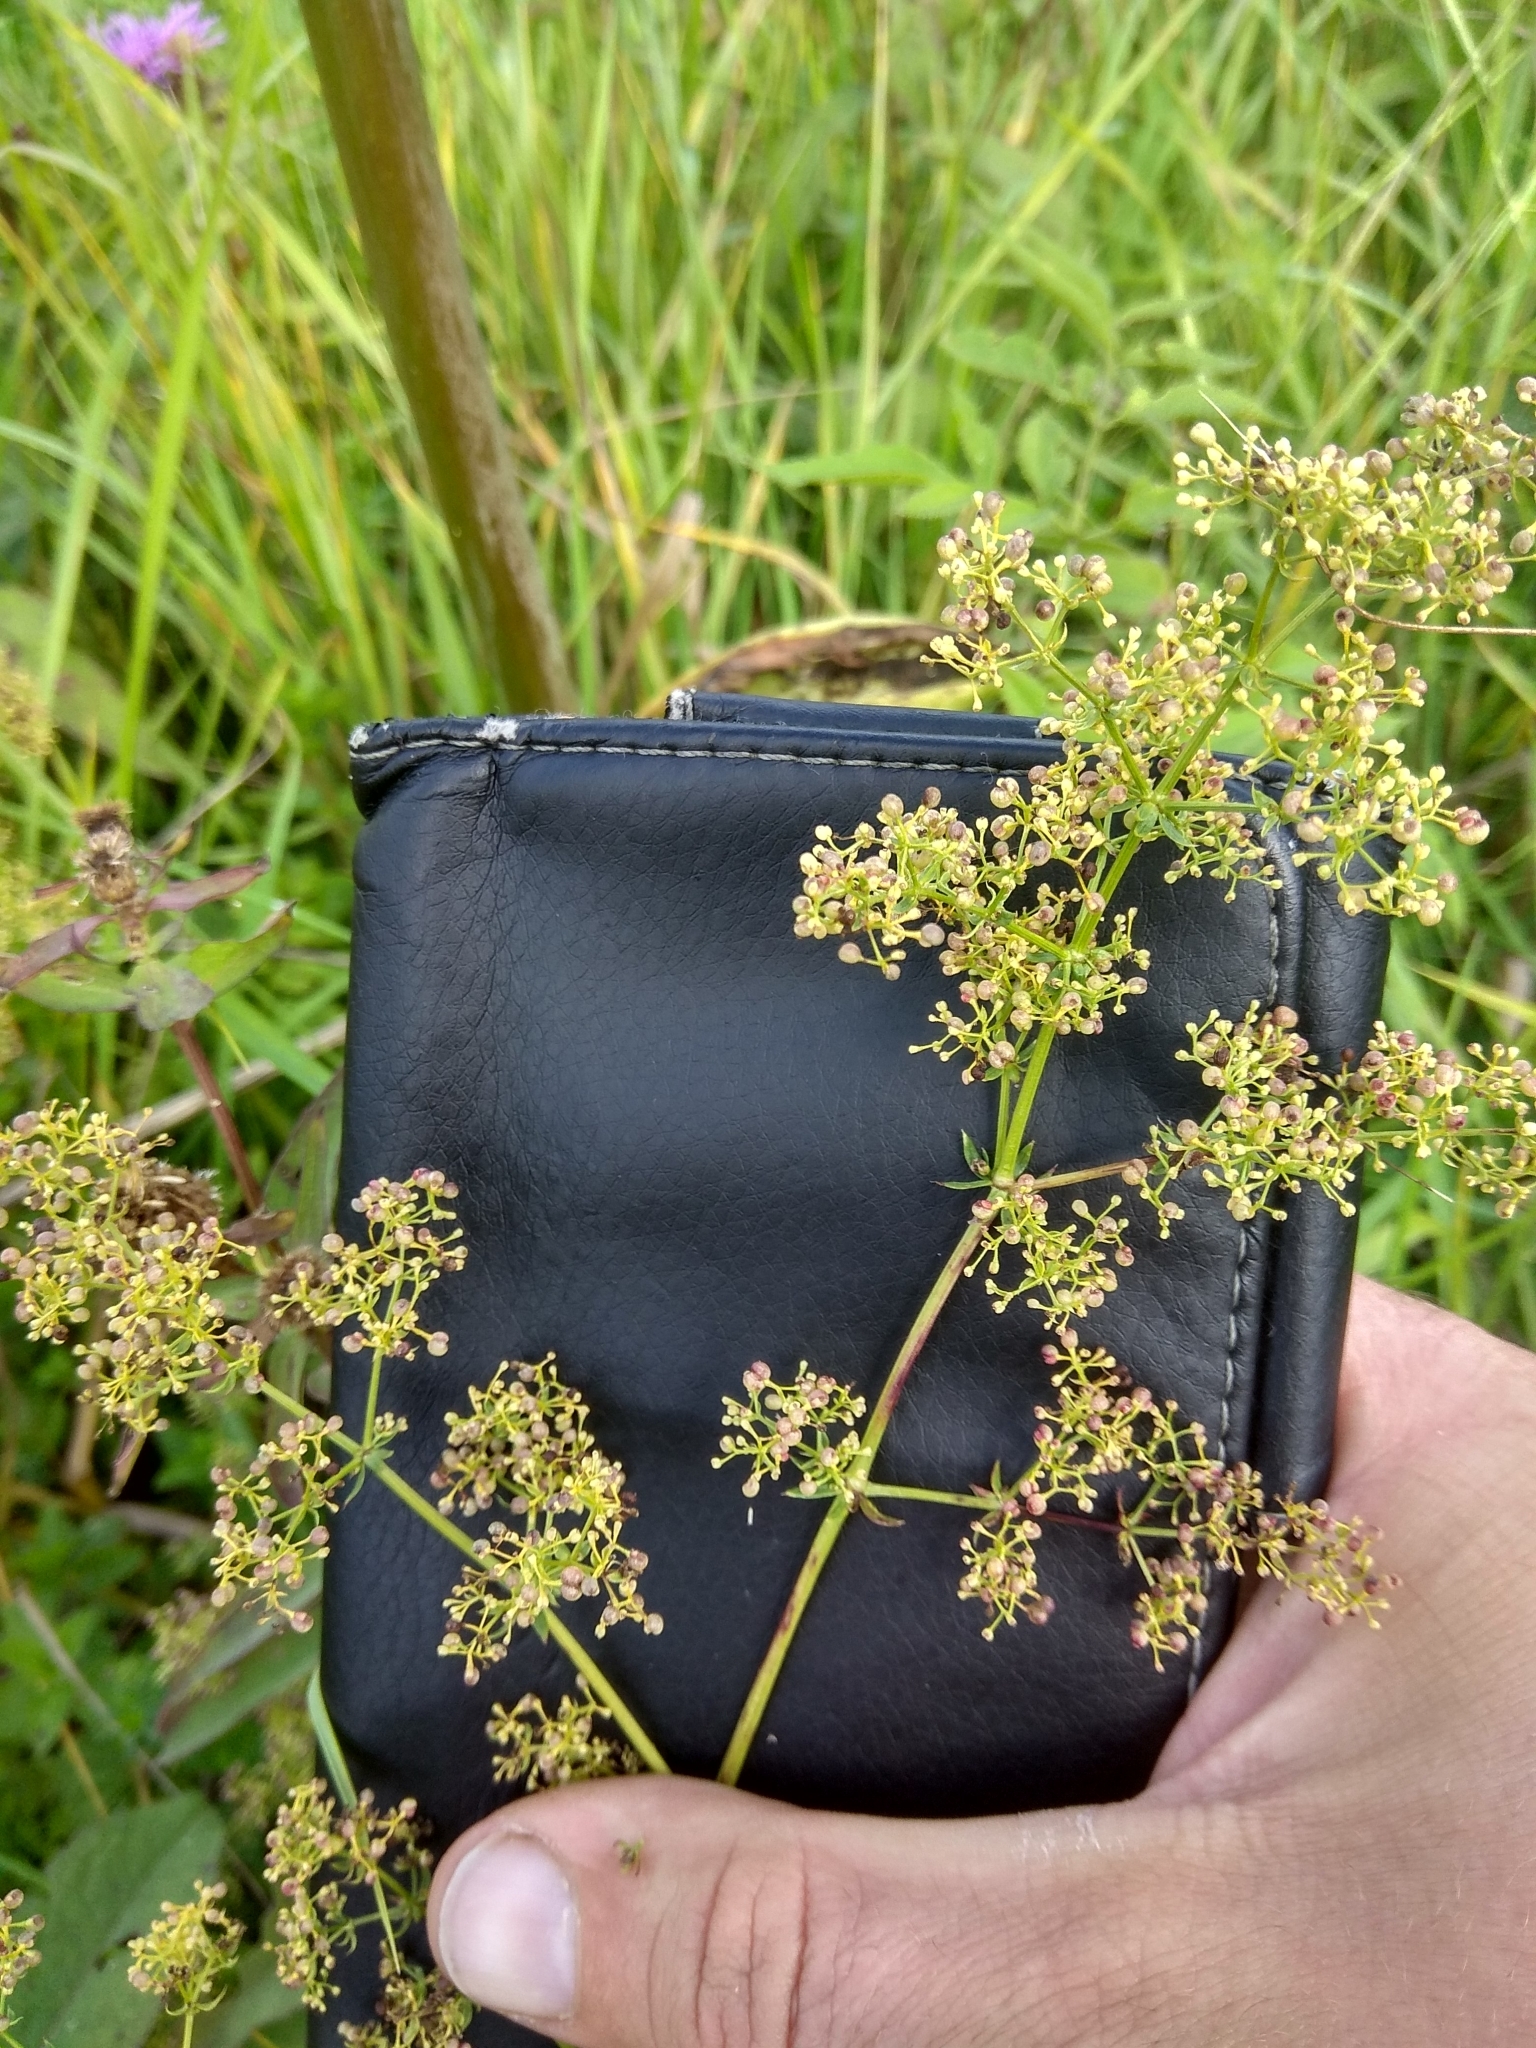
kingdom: Plantae
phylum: Tracheophyta
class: Magnoliopsida
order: Gentianales
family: Rubiaceae
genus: Galium
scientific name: Galium mollugo
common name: Hedge bedstraw
